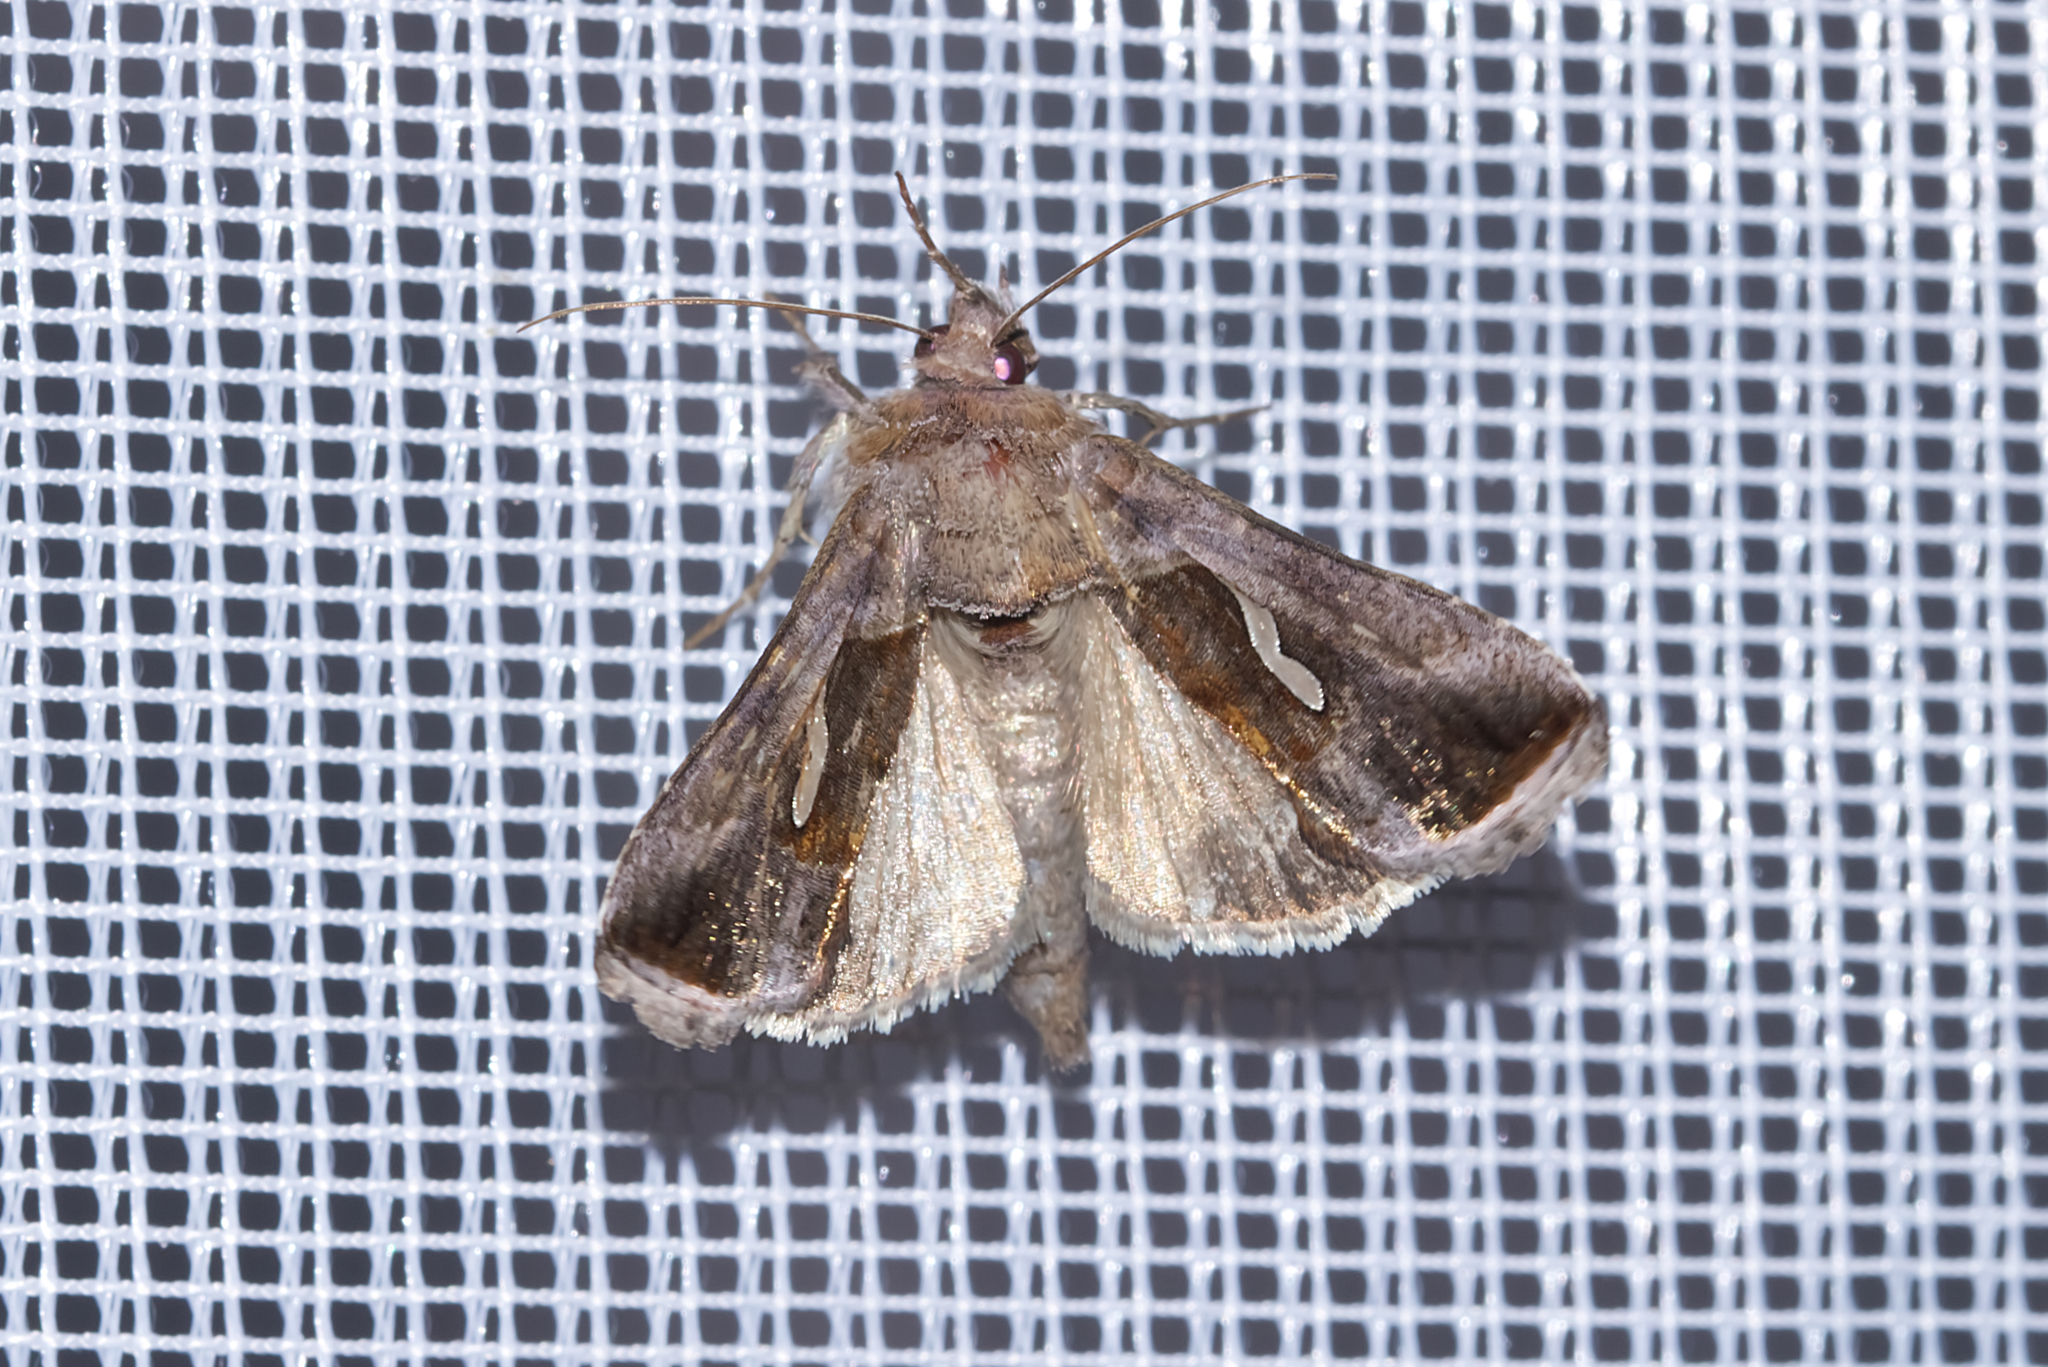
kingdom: Animalia
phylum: Arthropoda
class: Insecta
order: Lepidoptera
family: Noctuidae
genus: Macdunnoughia
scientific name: Macdunnoughia confusa
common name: Dewick's plusia
